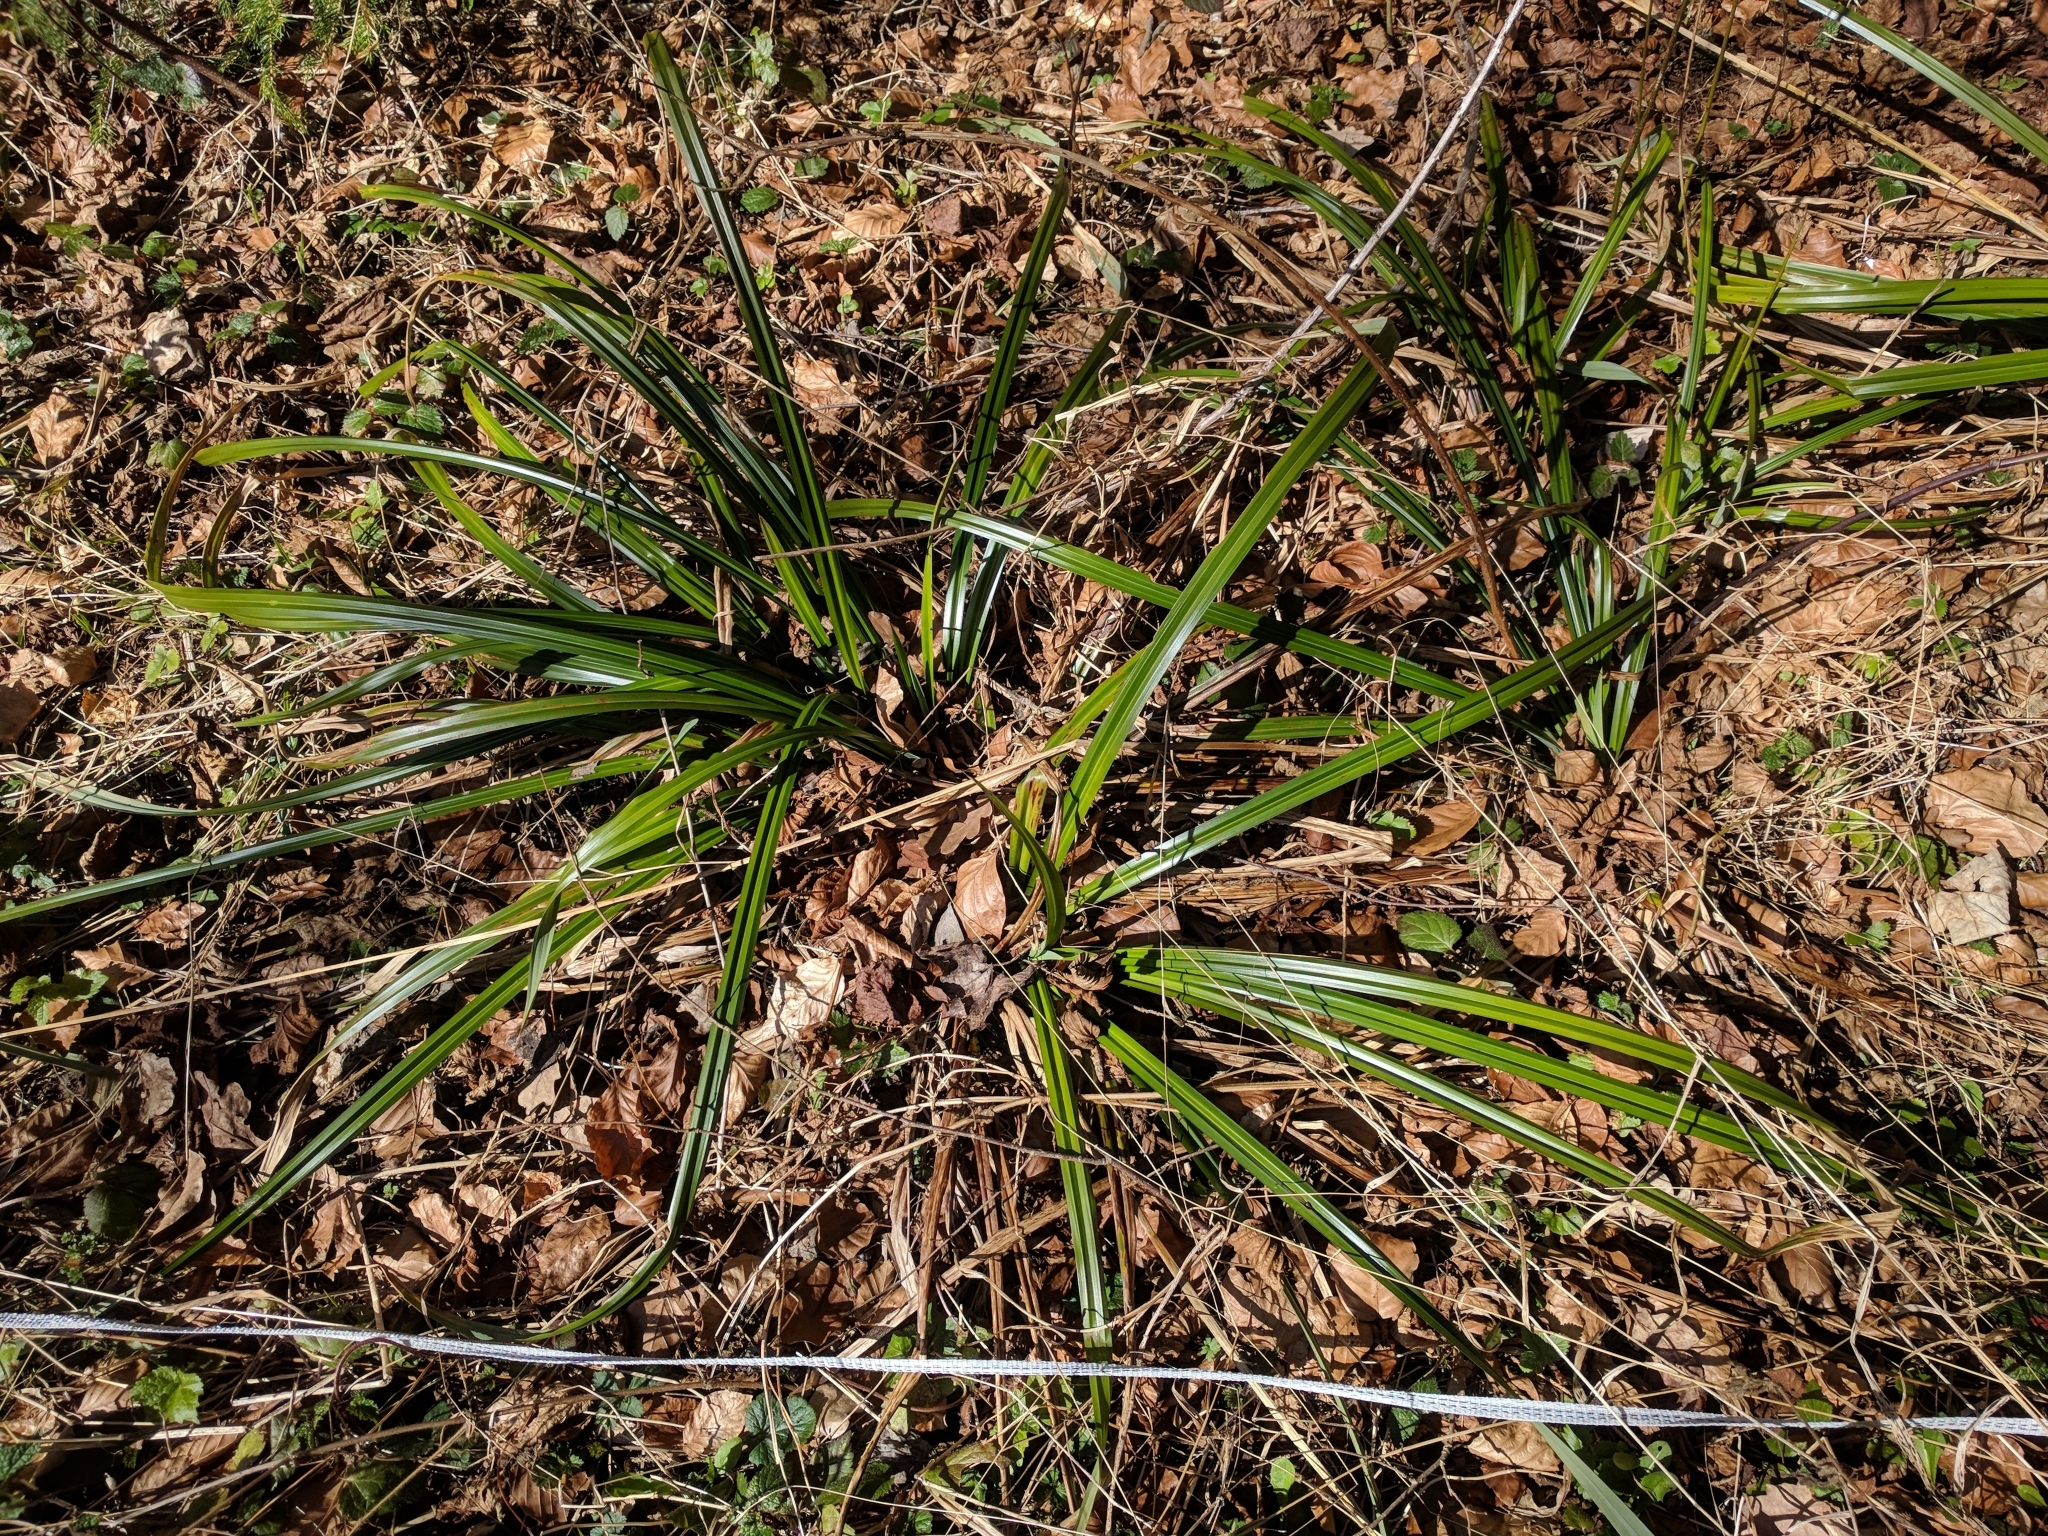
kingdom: Plantae
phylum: Tracheophyta
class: Liliopsida
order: Poales
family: Cyperaceae
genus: Carex
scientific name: Carex agastachys
